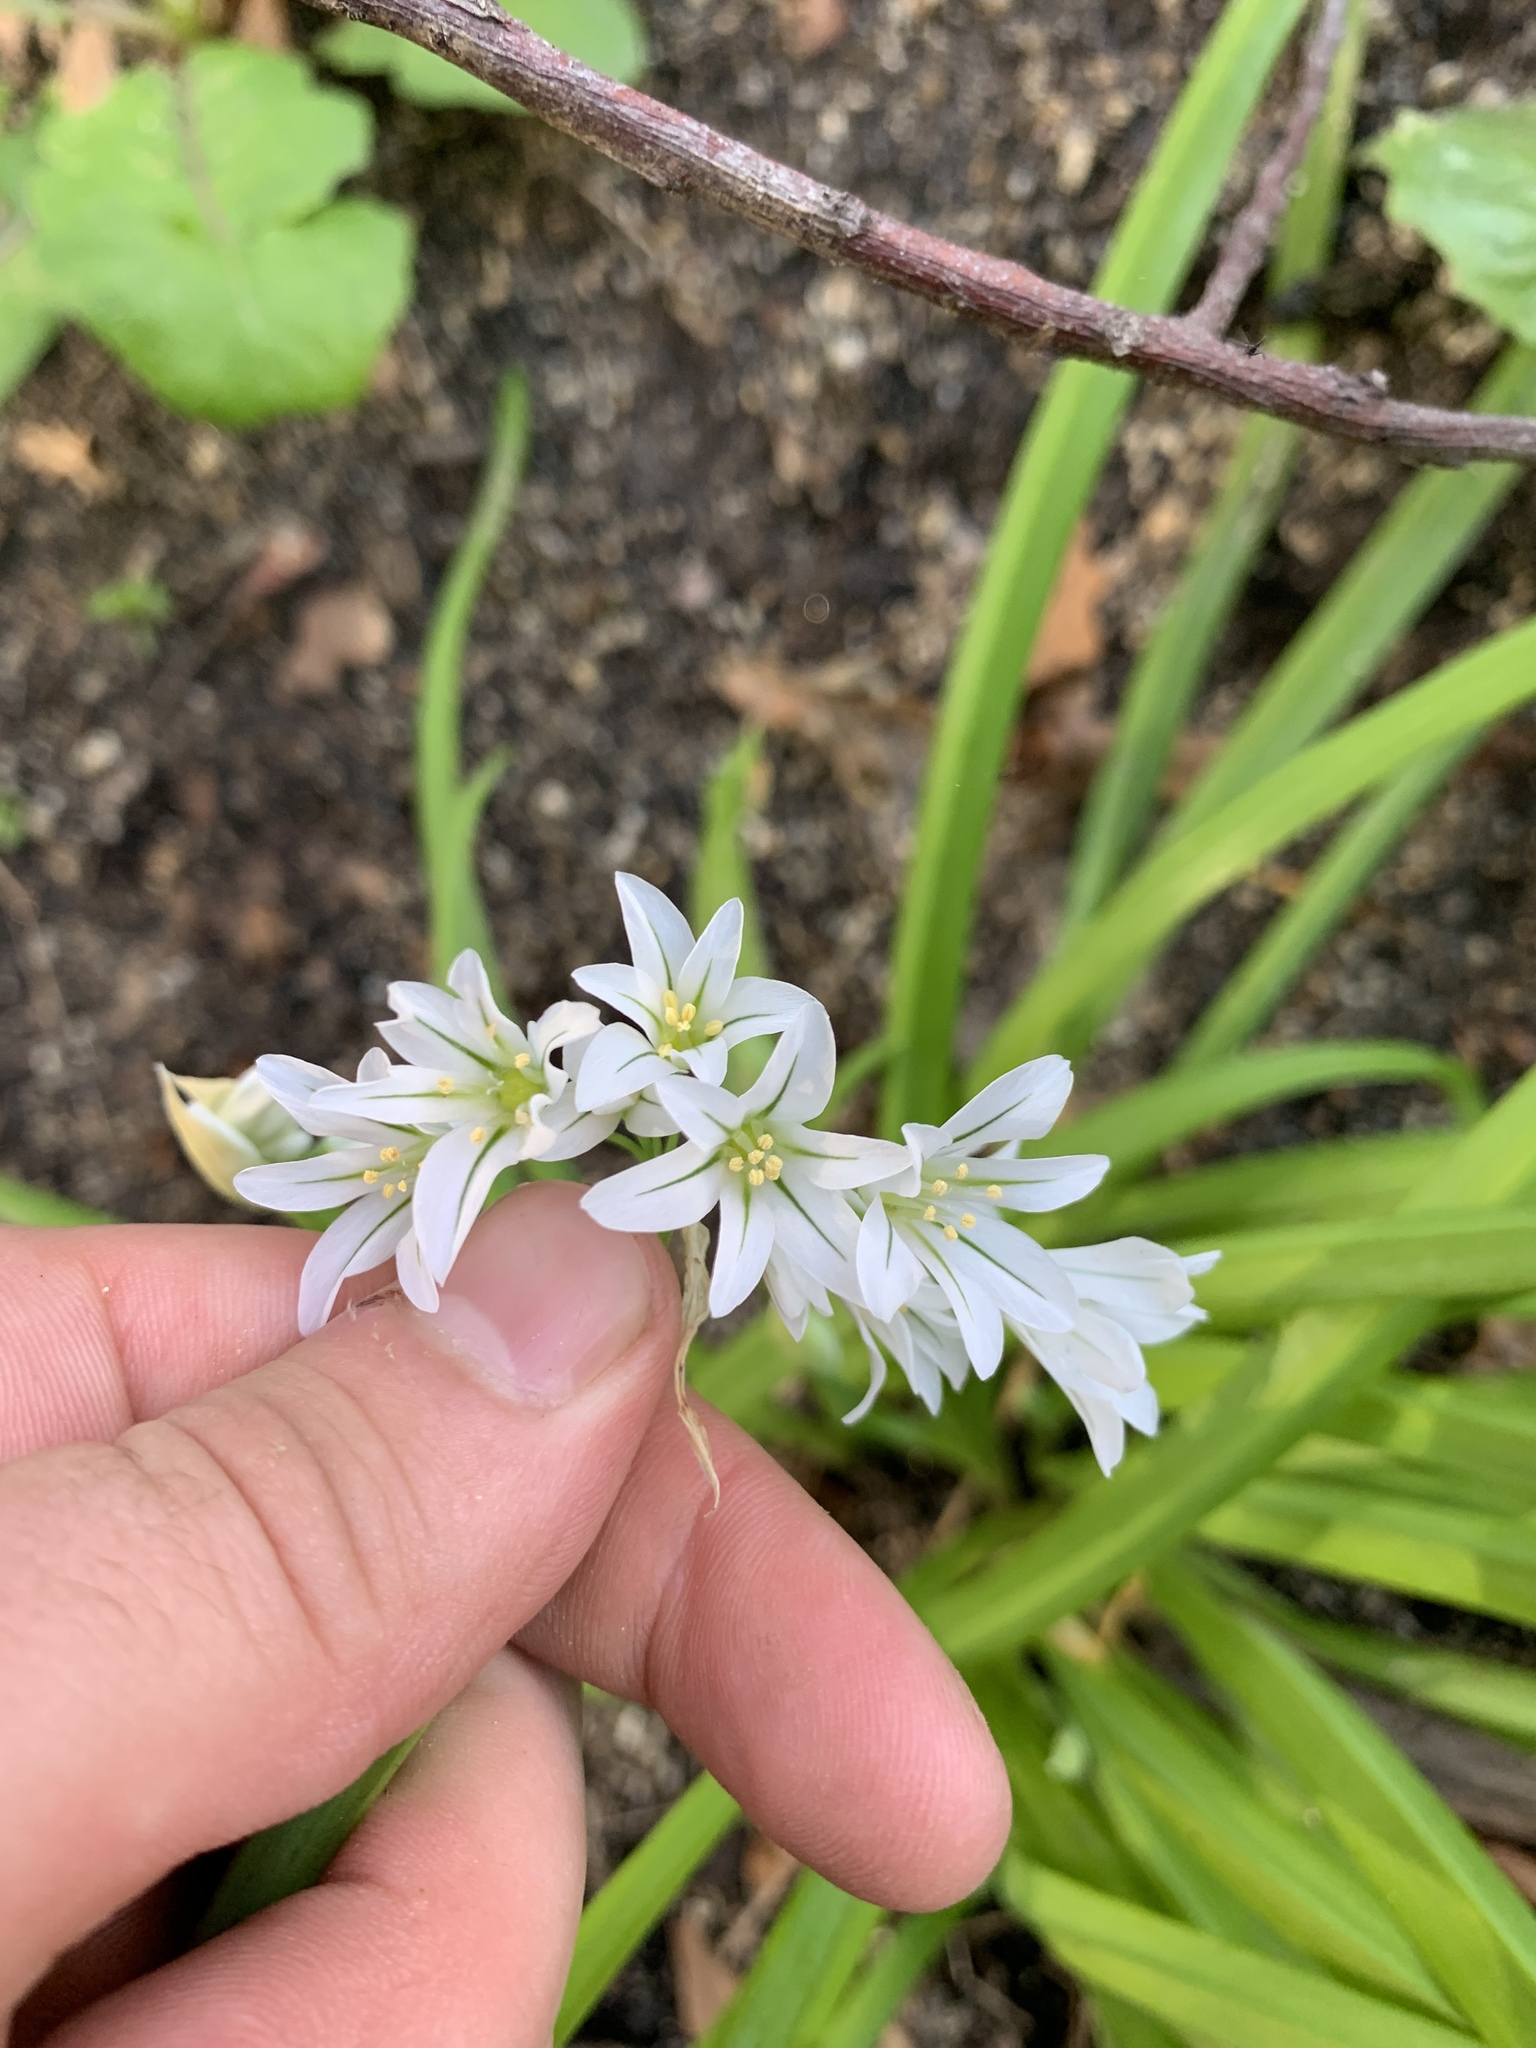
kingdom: Plantae
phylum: Tracheophyta
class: Liliopsida
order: Asparagales
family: Amaryllidaceae
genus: Allium
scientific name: Allium triquetrum
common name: Three-cornered garlic
